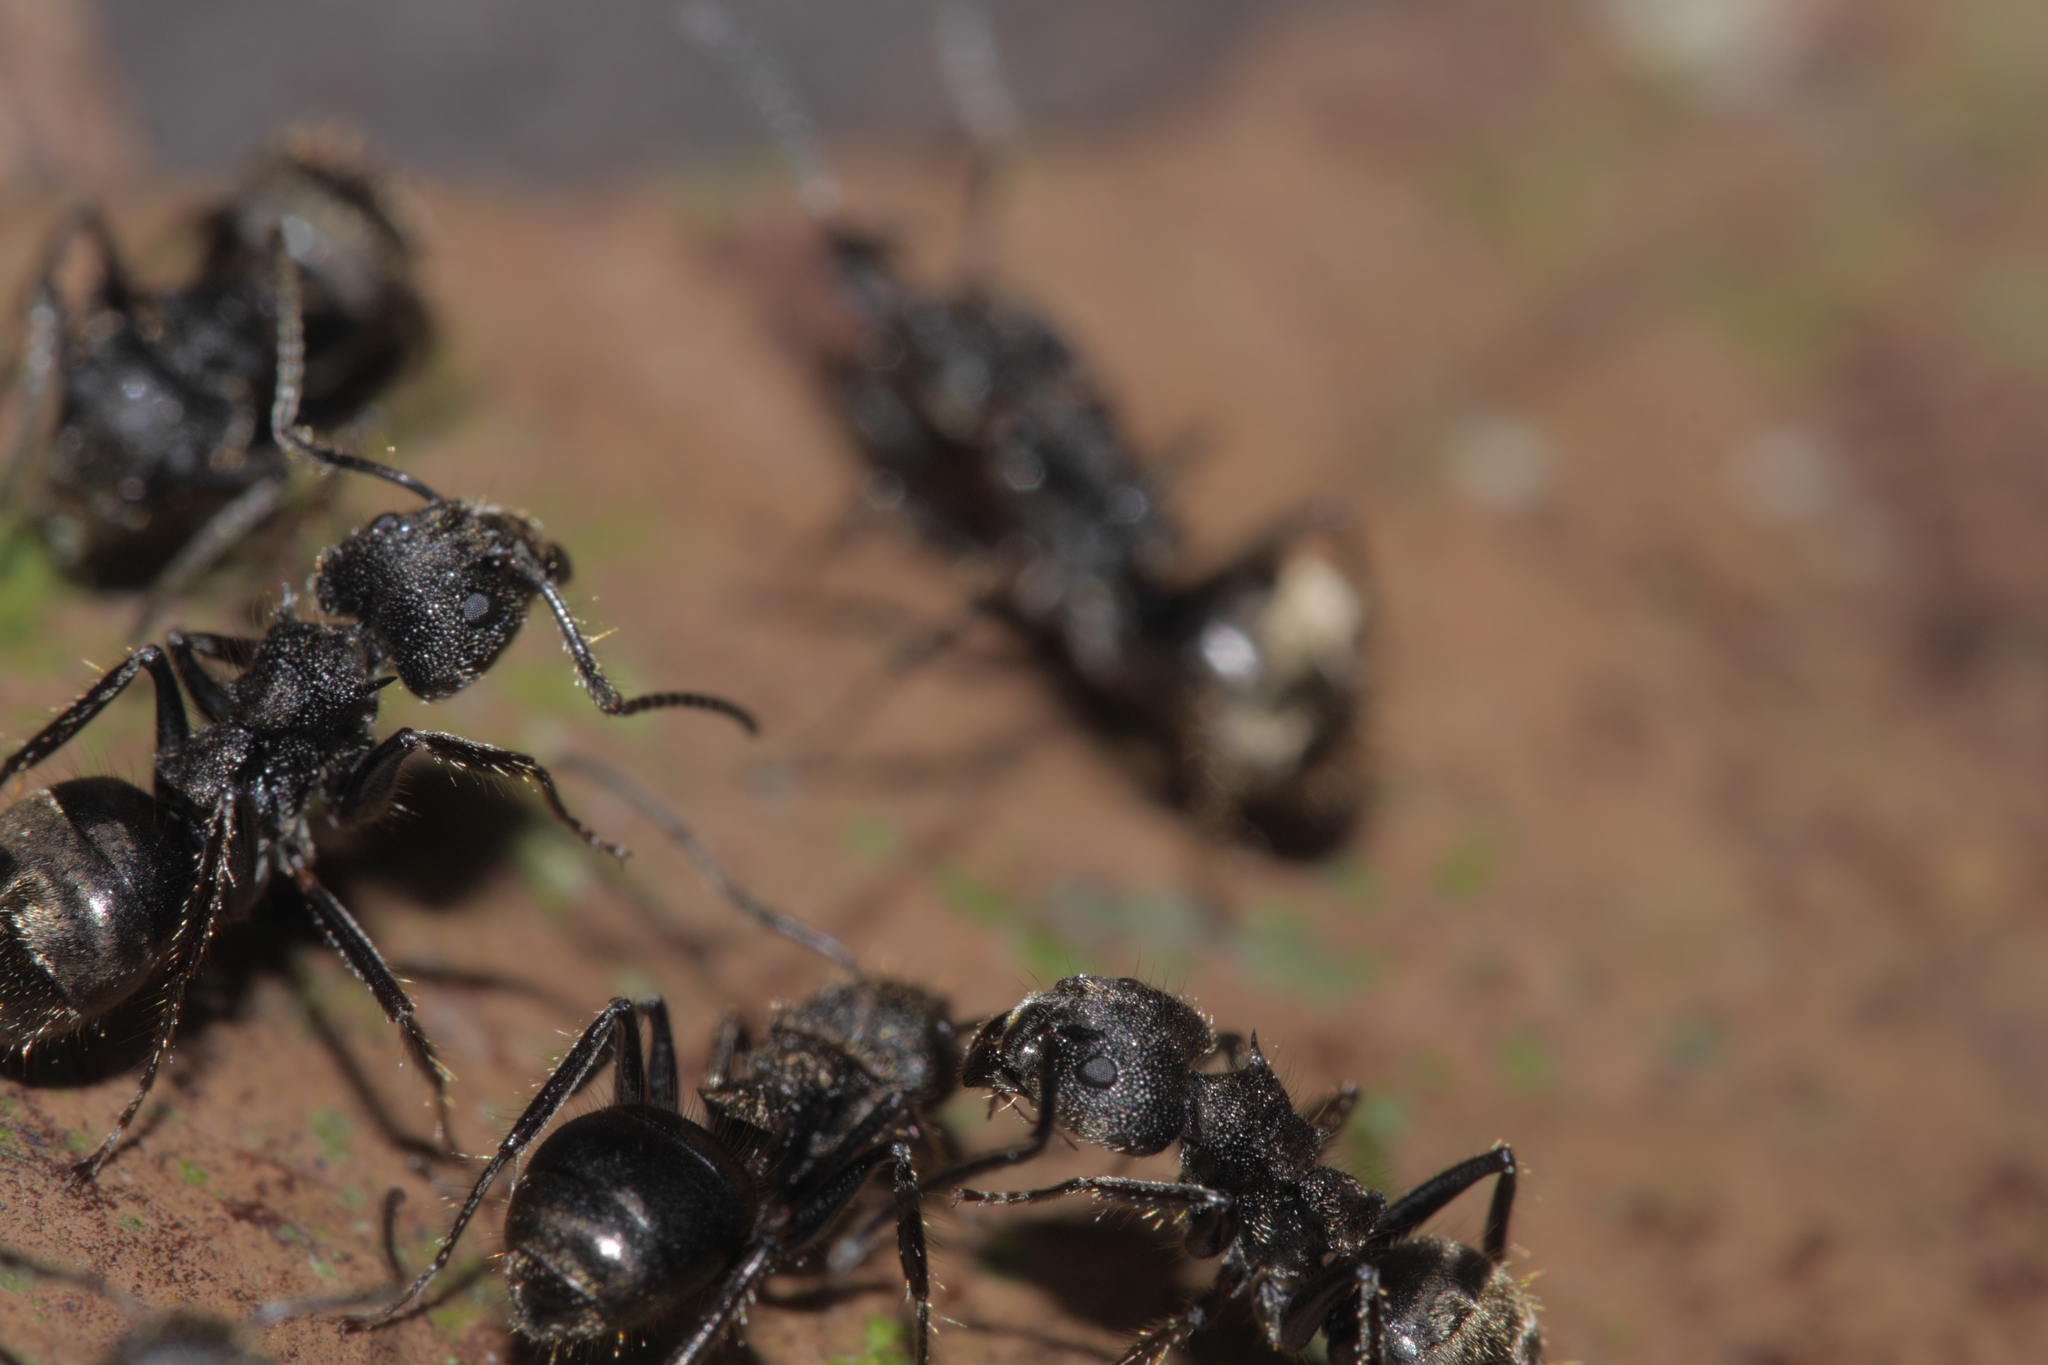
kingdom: Animalia
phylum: Arthropoda
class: Insecta
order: Hymenoptera
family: Formicidae
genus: Dolichoderus
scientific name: Dolichoderus bispinosus
